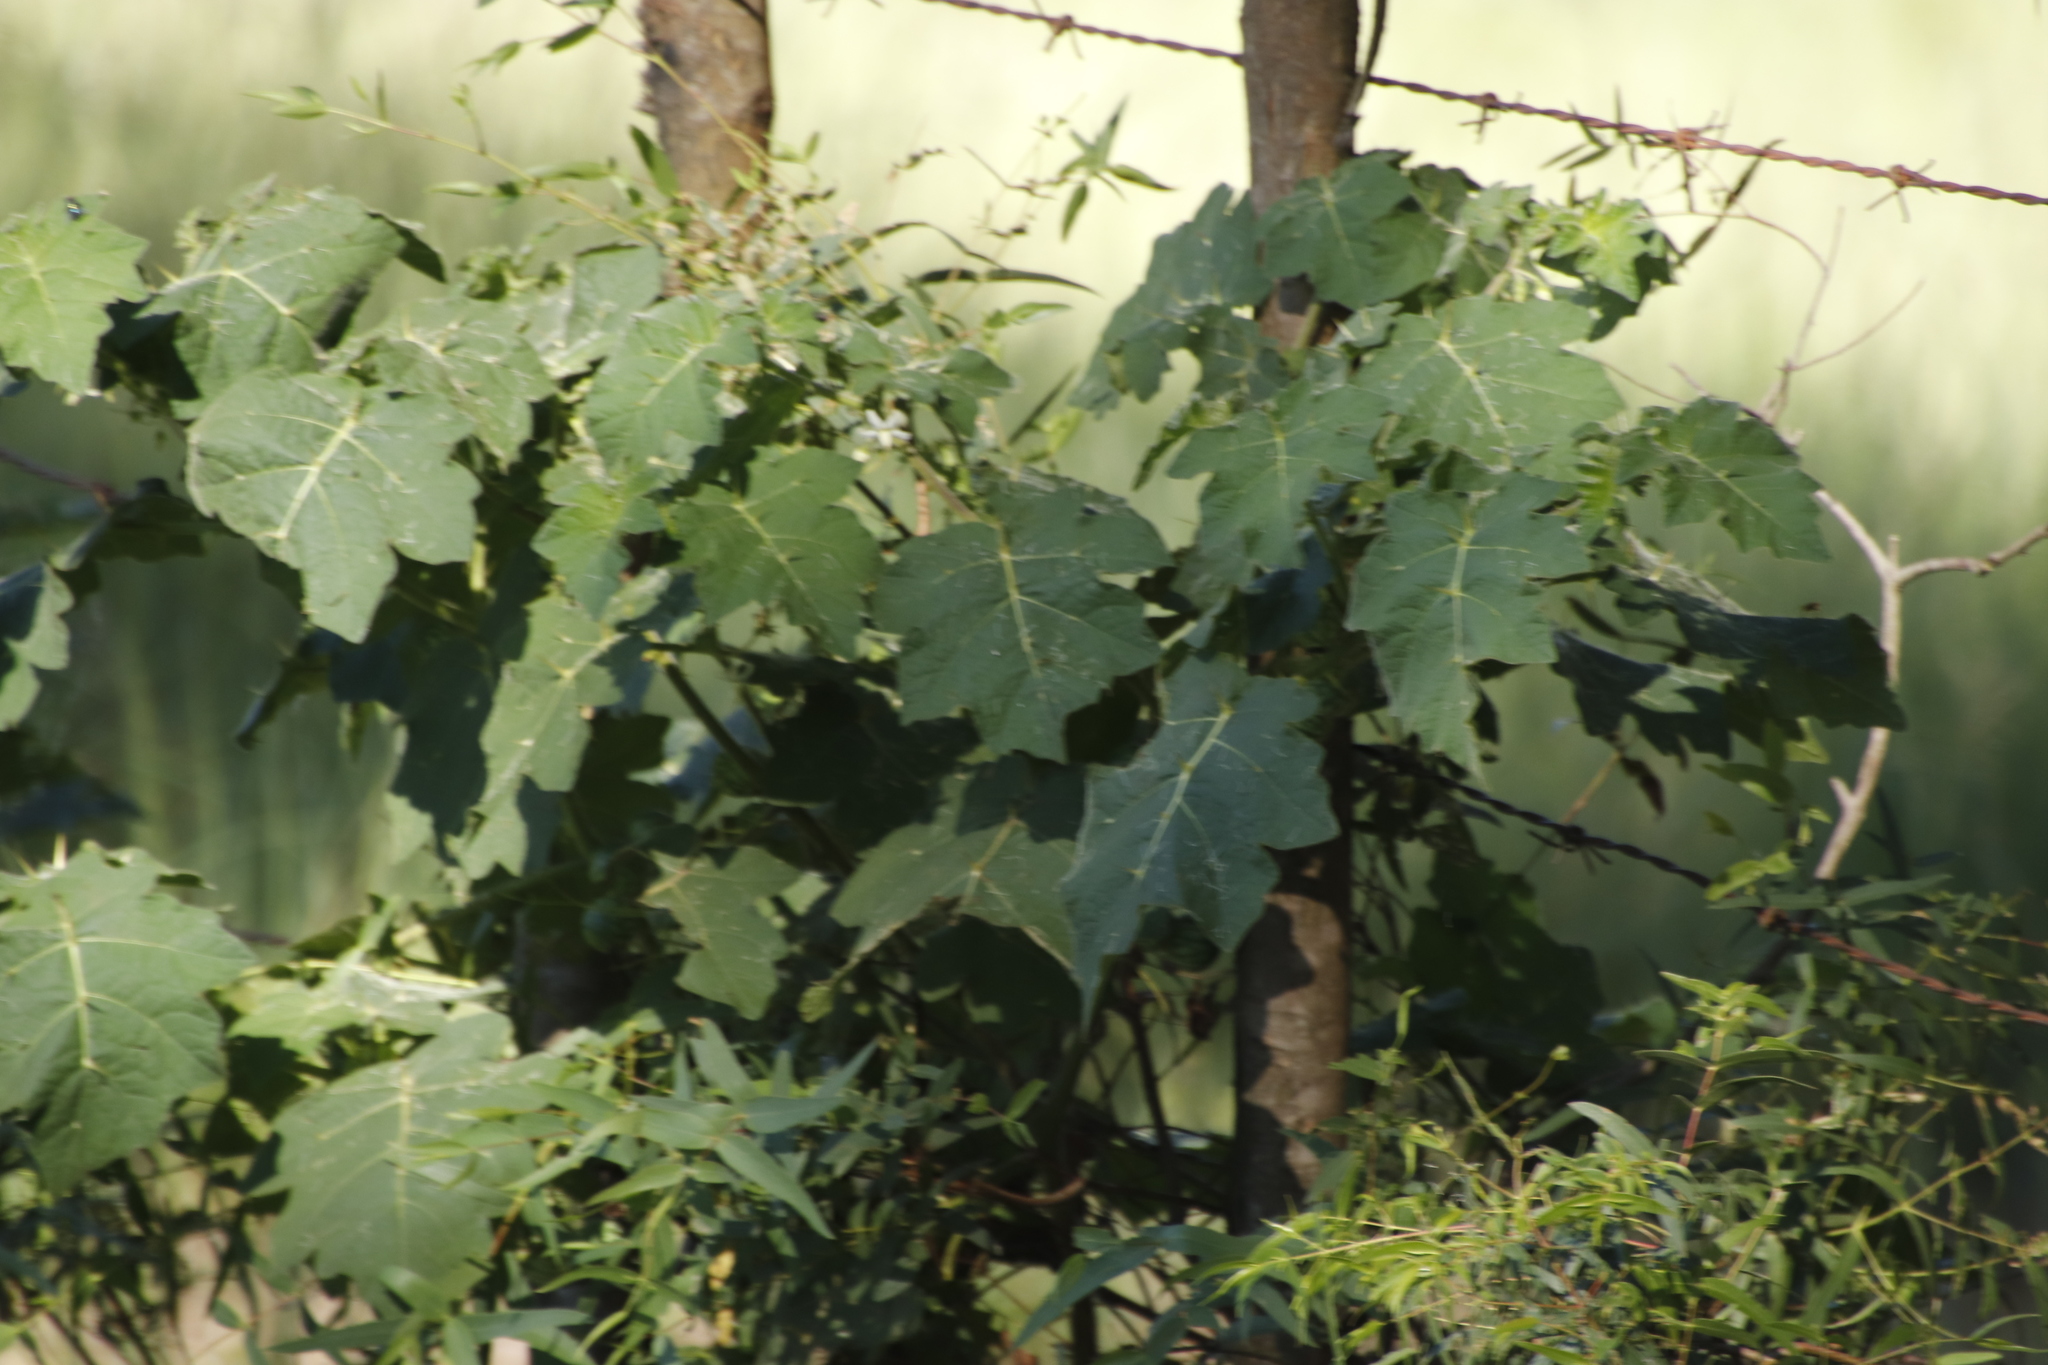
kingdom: Plantae
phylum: Tracheophyta
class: Magnoliopsida
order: Solanales
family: Solanaceae
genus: Solanum
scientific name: Solanum viarum
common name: Tropical soda apple
